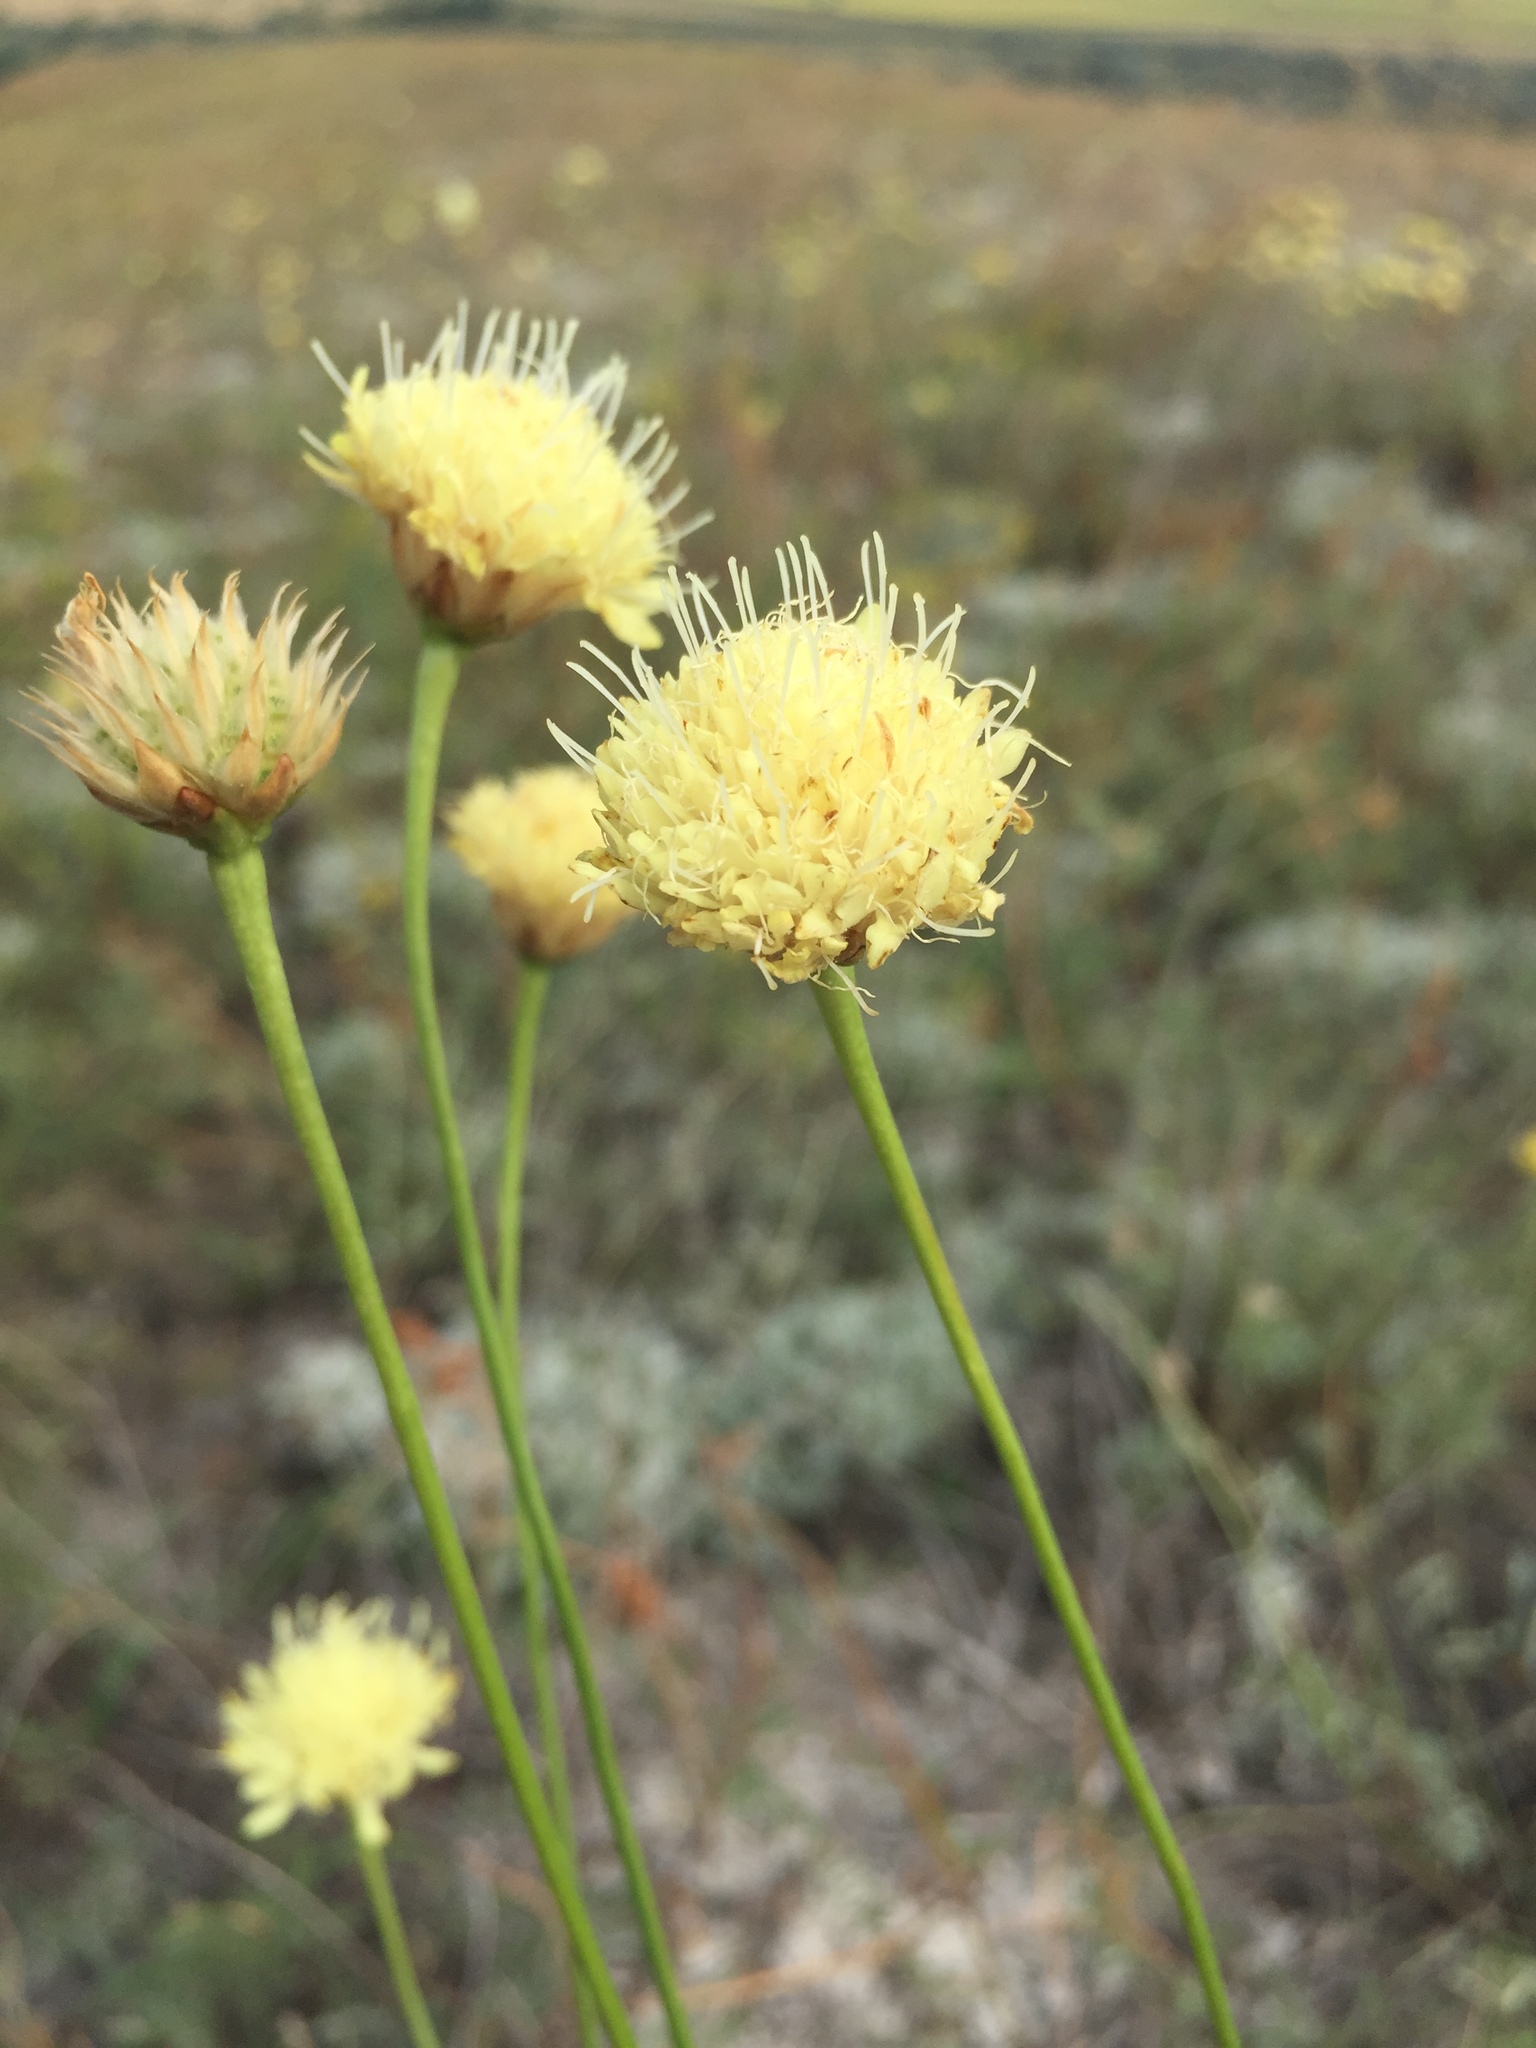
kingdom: Plantae
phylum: Tracheophyta
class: Magnoliopsida
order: Dipsacales
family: Caprifoliaceae
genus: Cephalaria
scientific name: Cephalaria uralensis
